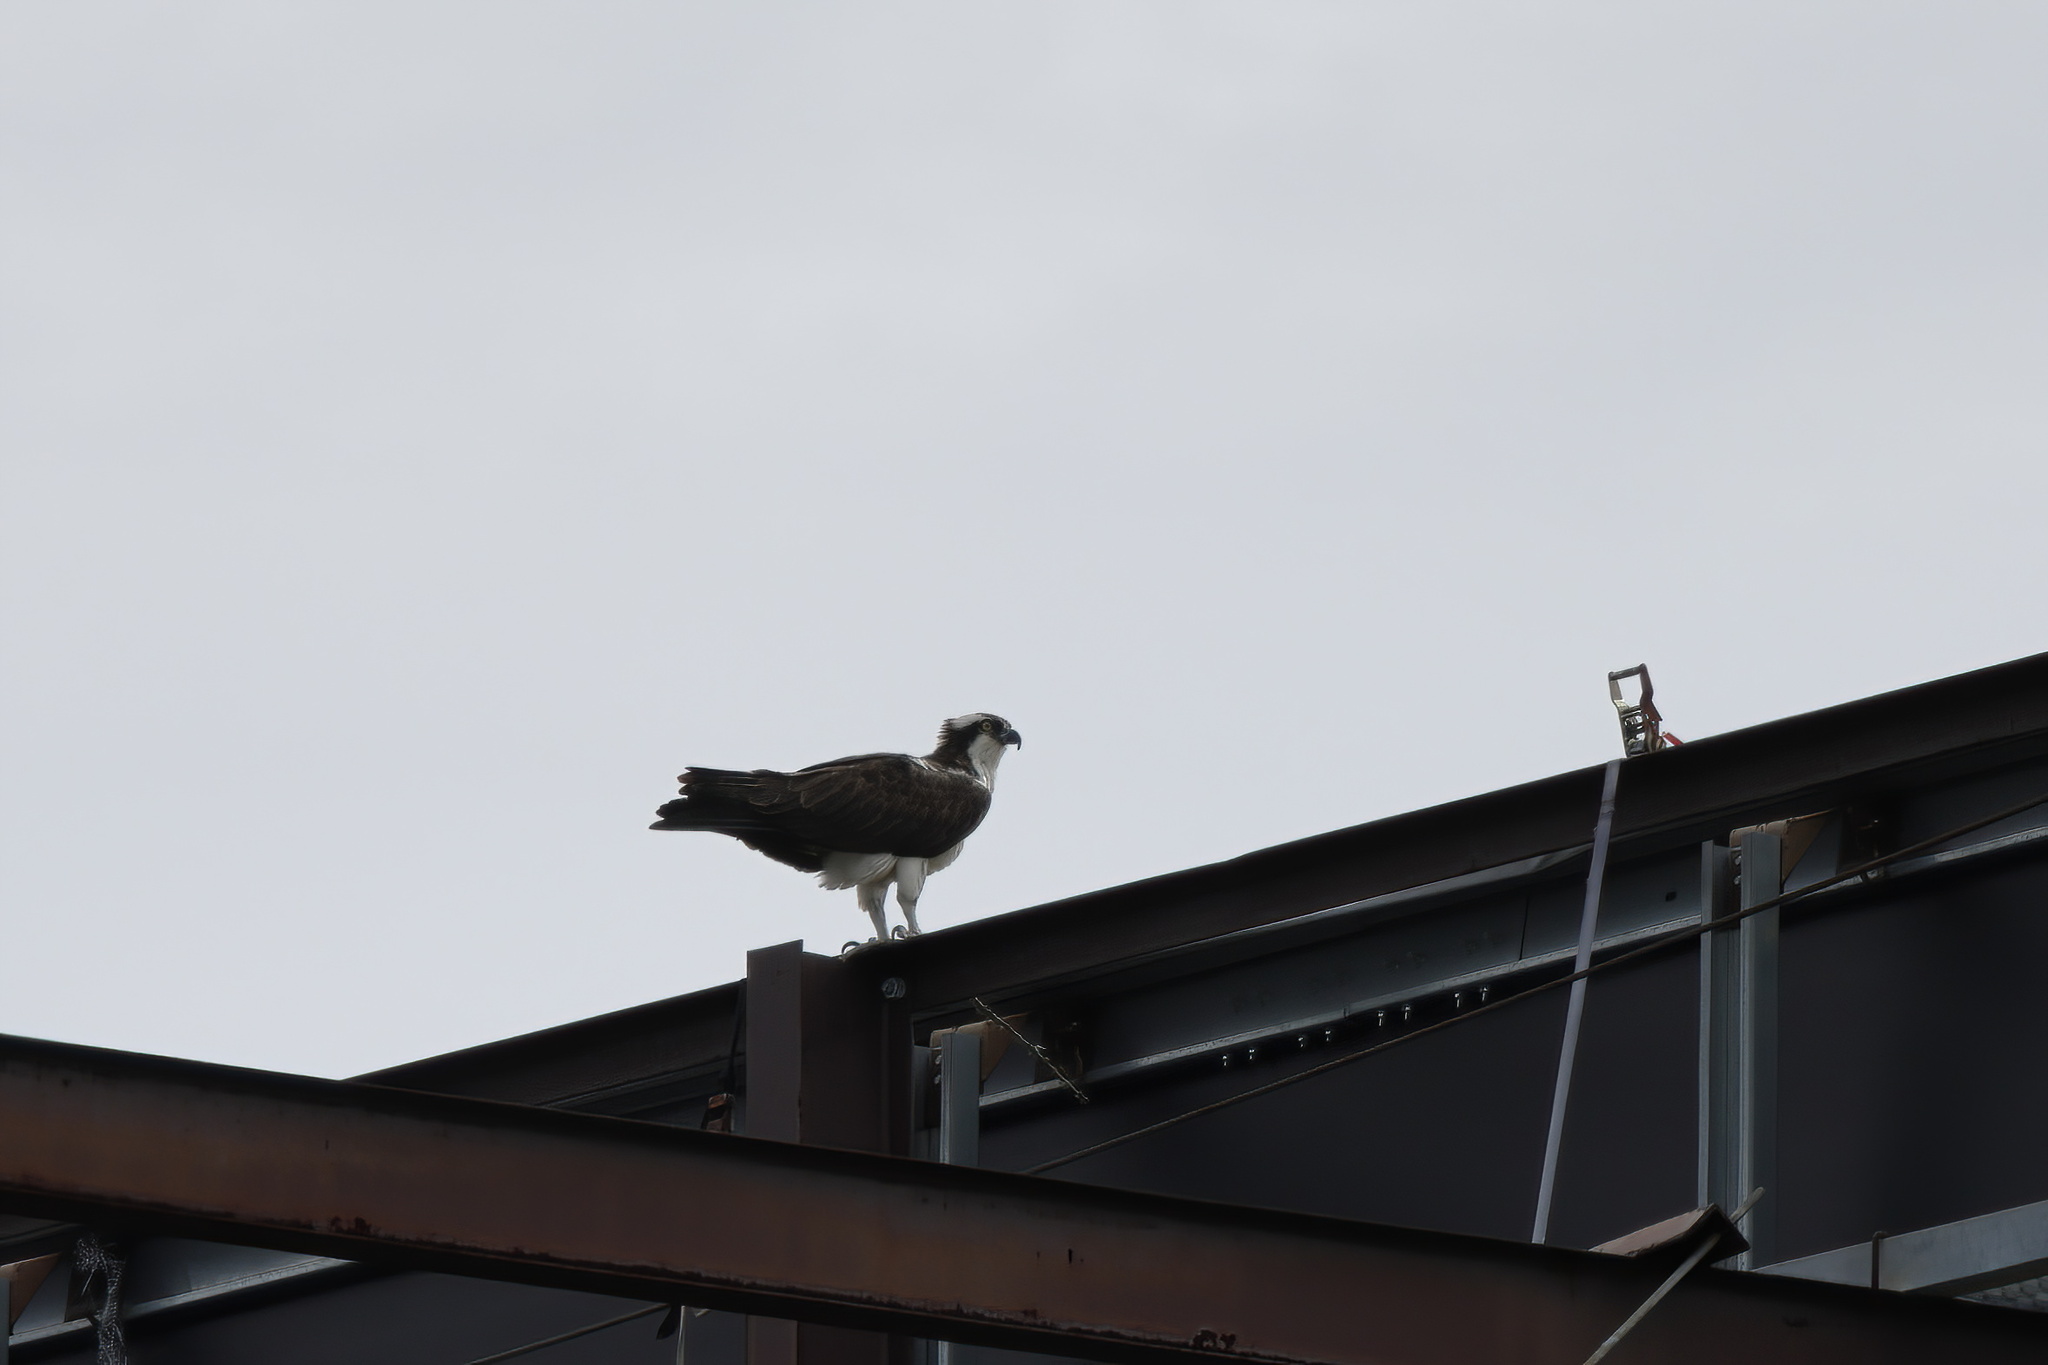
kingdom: Animalia
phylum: Chordata
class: Aves
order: Accipitriformes
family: Pandionidae
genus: Pandion
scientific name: Pandion haliaetus
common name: Osprey
